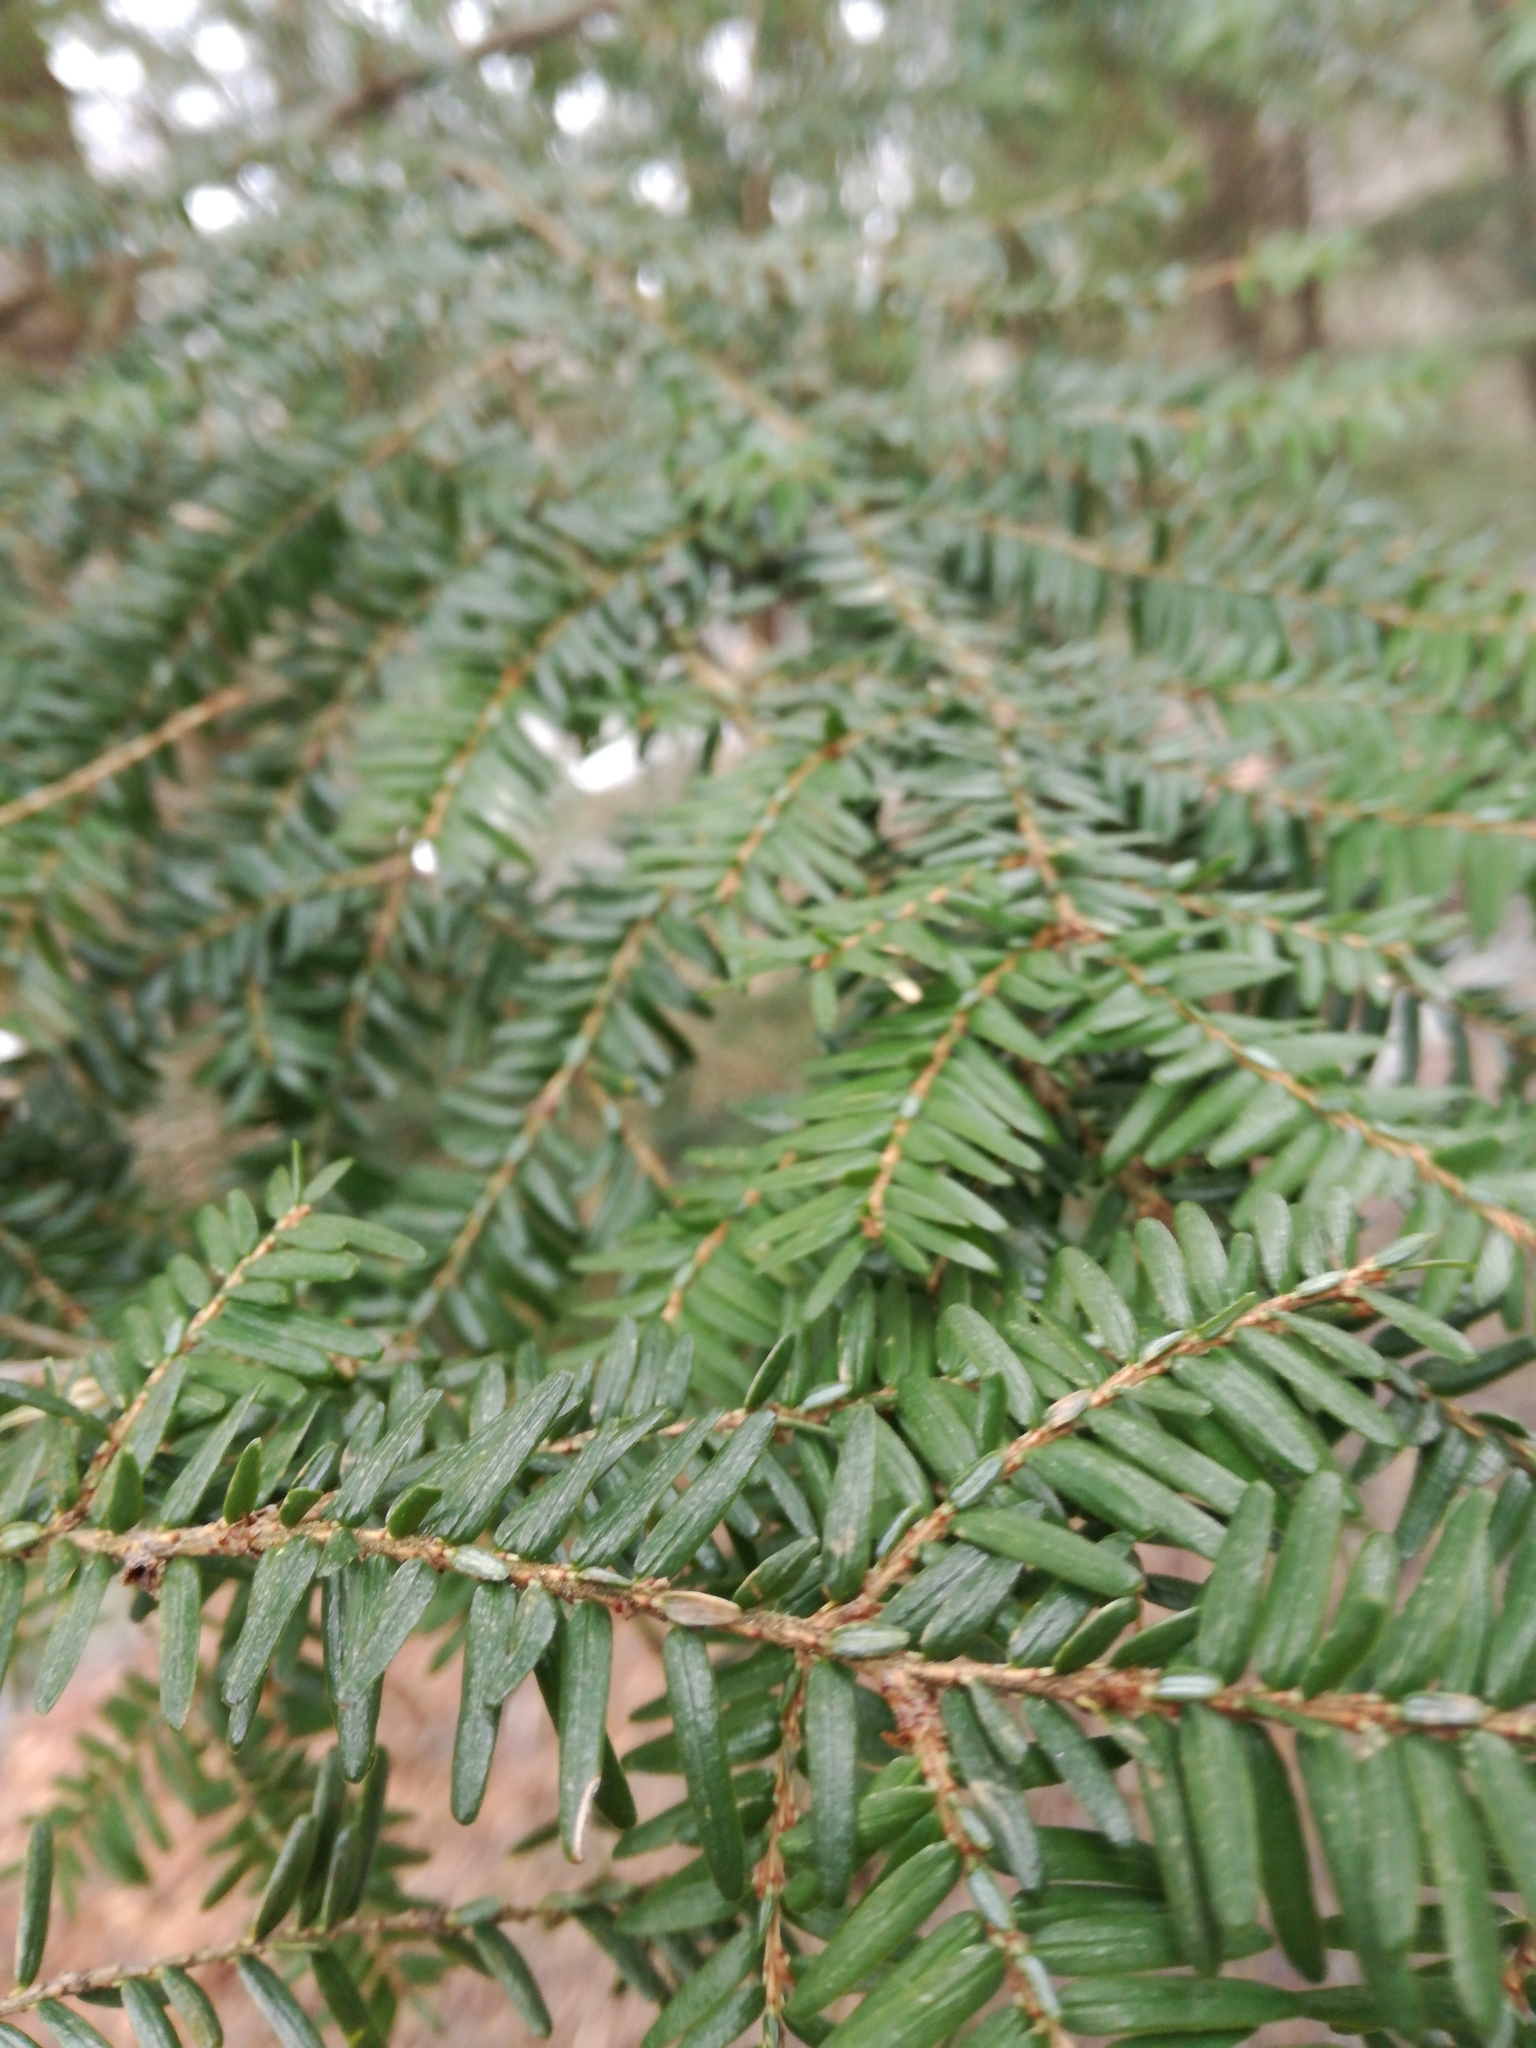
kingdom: Plantae
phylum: Tracheophyta
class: Pinopsida
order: Pinales
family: Pinaceae
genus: Tsuga
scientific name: Tsuga canadensis
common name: Eastern hemlock
